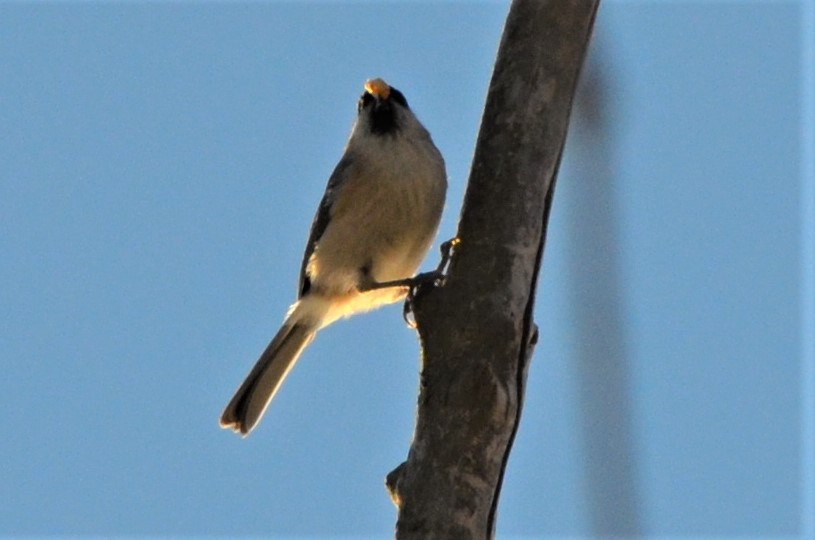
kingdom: Animalia
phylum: Chordata
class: Aves
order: Passeriformes
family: Paridae
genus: Poecile
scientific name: Poecile palustris
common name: Marsh tit
